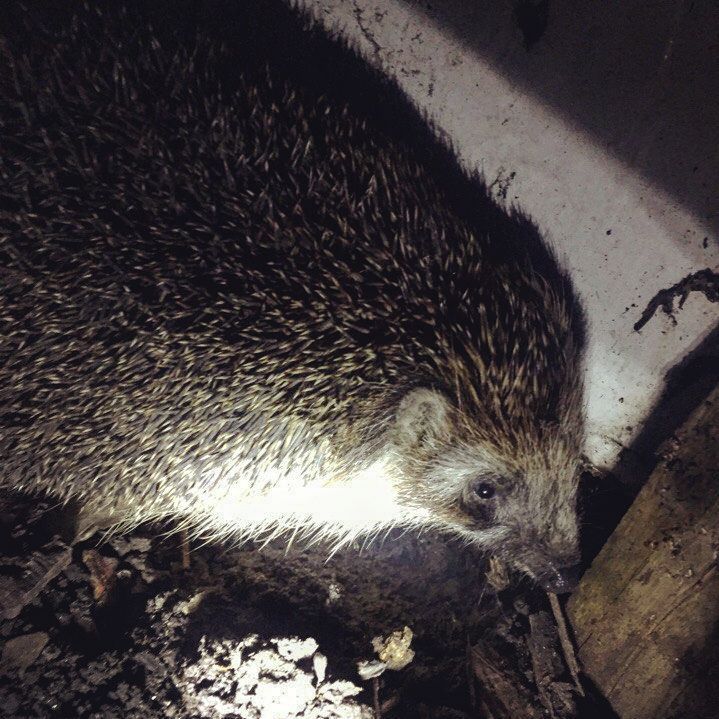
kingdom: Animalia
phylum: Chordata
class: Mammalia
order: Erinaceomorpha
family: Erinaceidae
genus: Erinaceus
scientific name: Erinaceus roumanicus
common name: Northern white-breasted hedgehog
